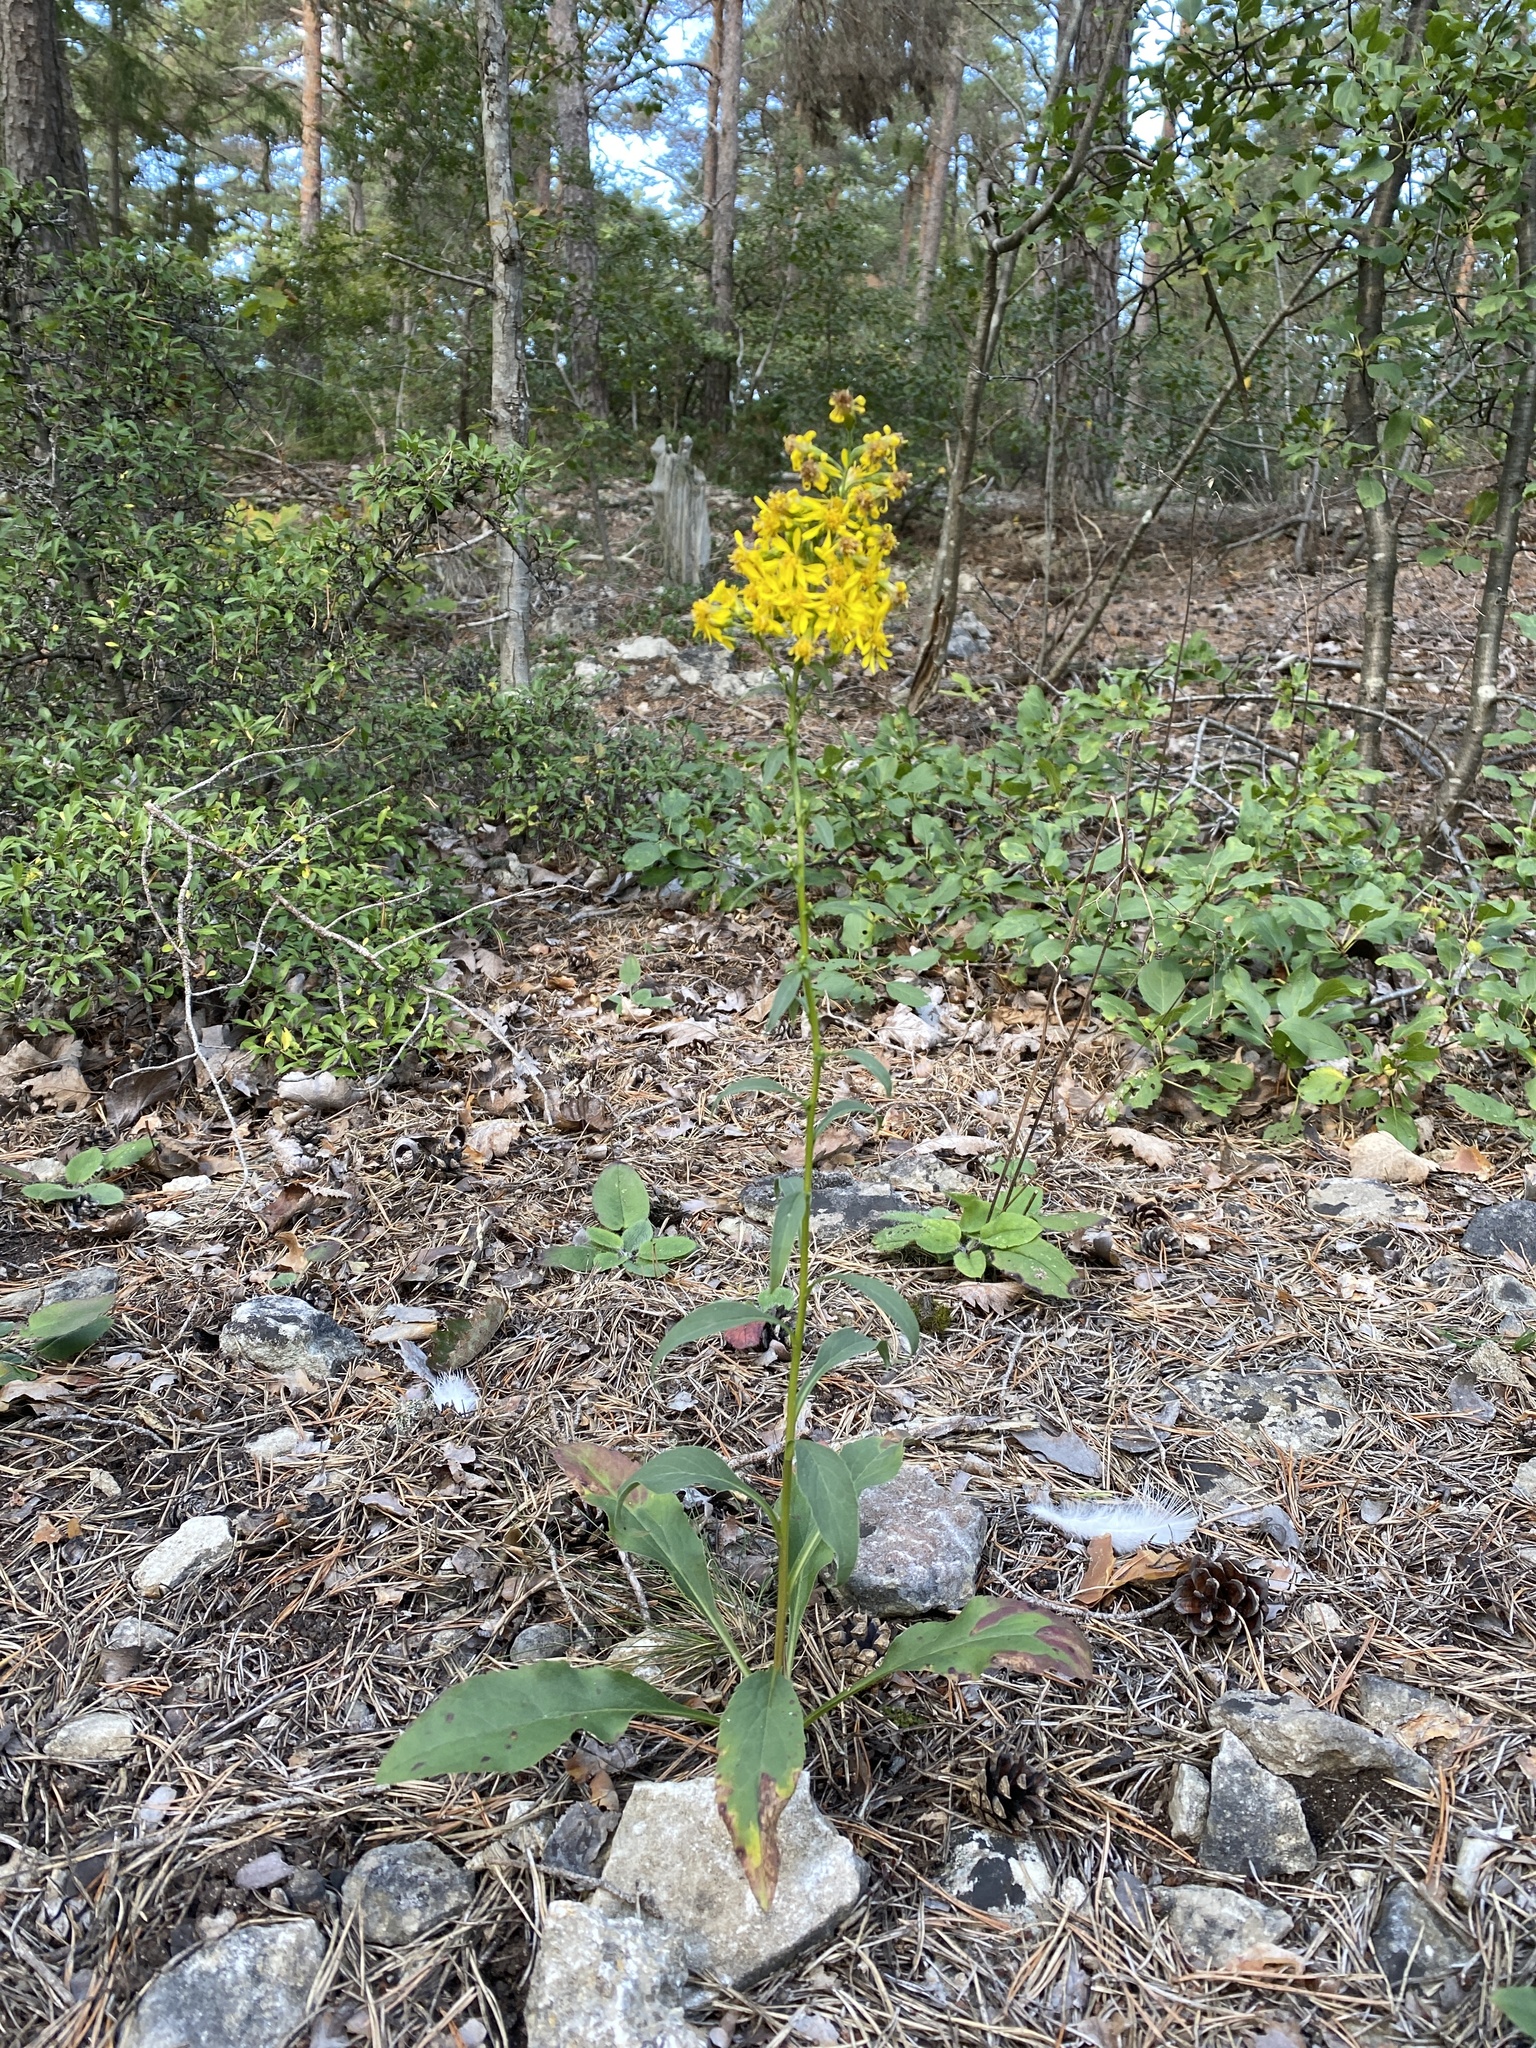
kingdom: Plantae
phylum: Tracheophyta
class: Magnoliopsida
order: Asterales
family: Asteraceae
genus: Solidago
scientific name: Solidago virgaurea
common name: Goldenrod
